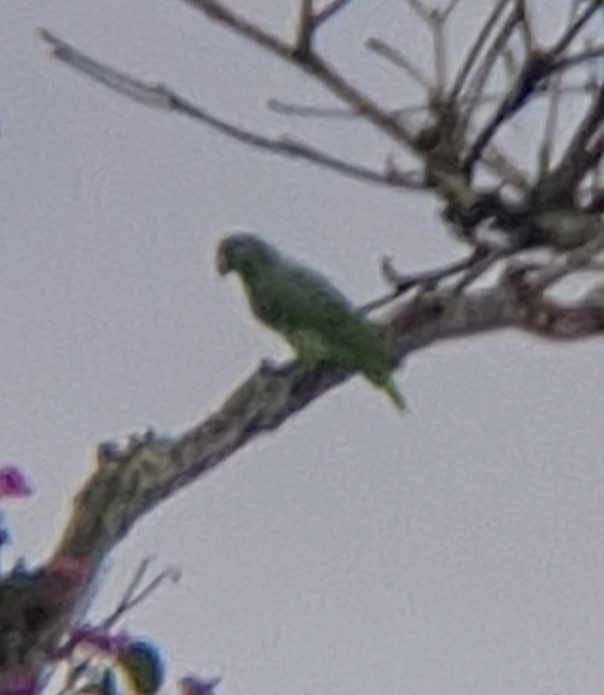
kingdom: Animalia
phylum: Chordata
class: Aves
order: Psittaciformes
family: Psittacidae
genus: Amazona
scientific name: Amazona rhodocorytha
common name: Red-browed amazon
